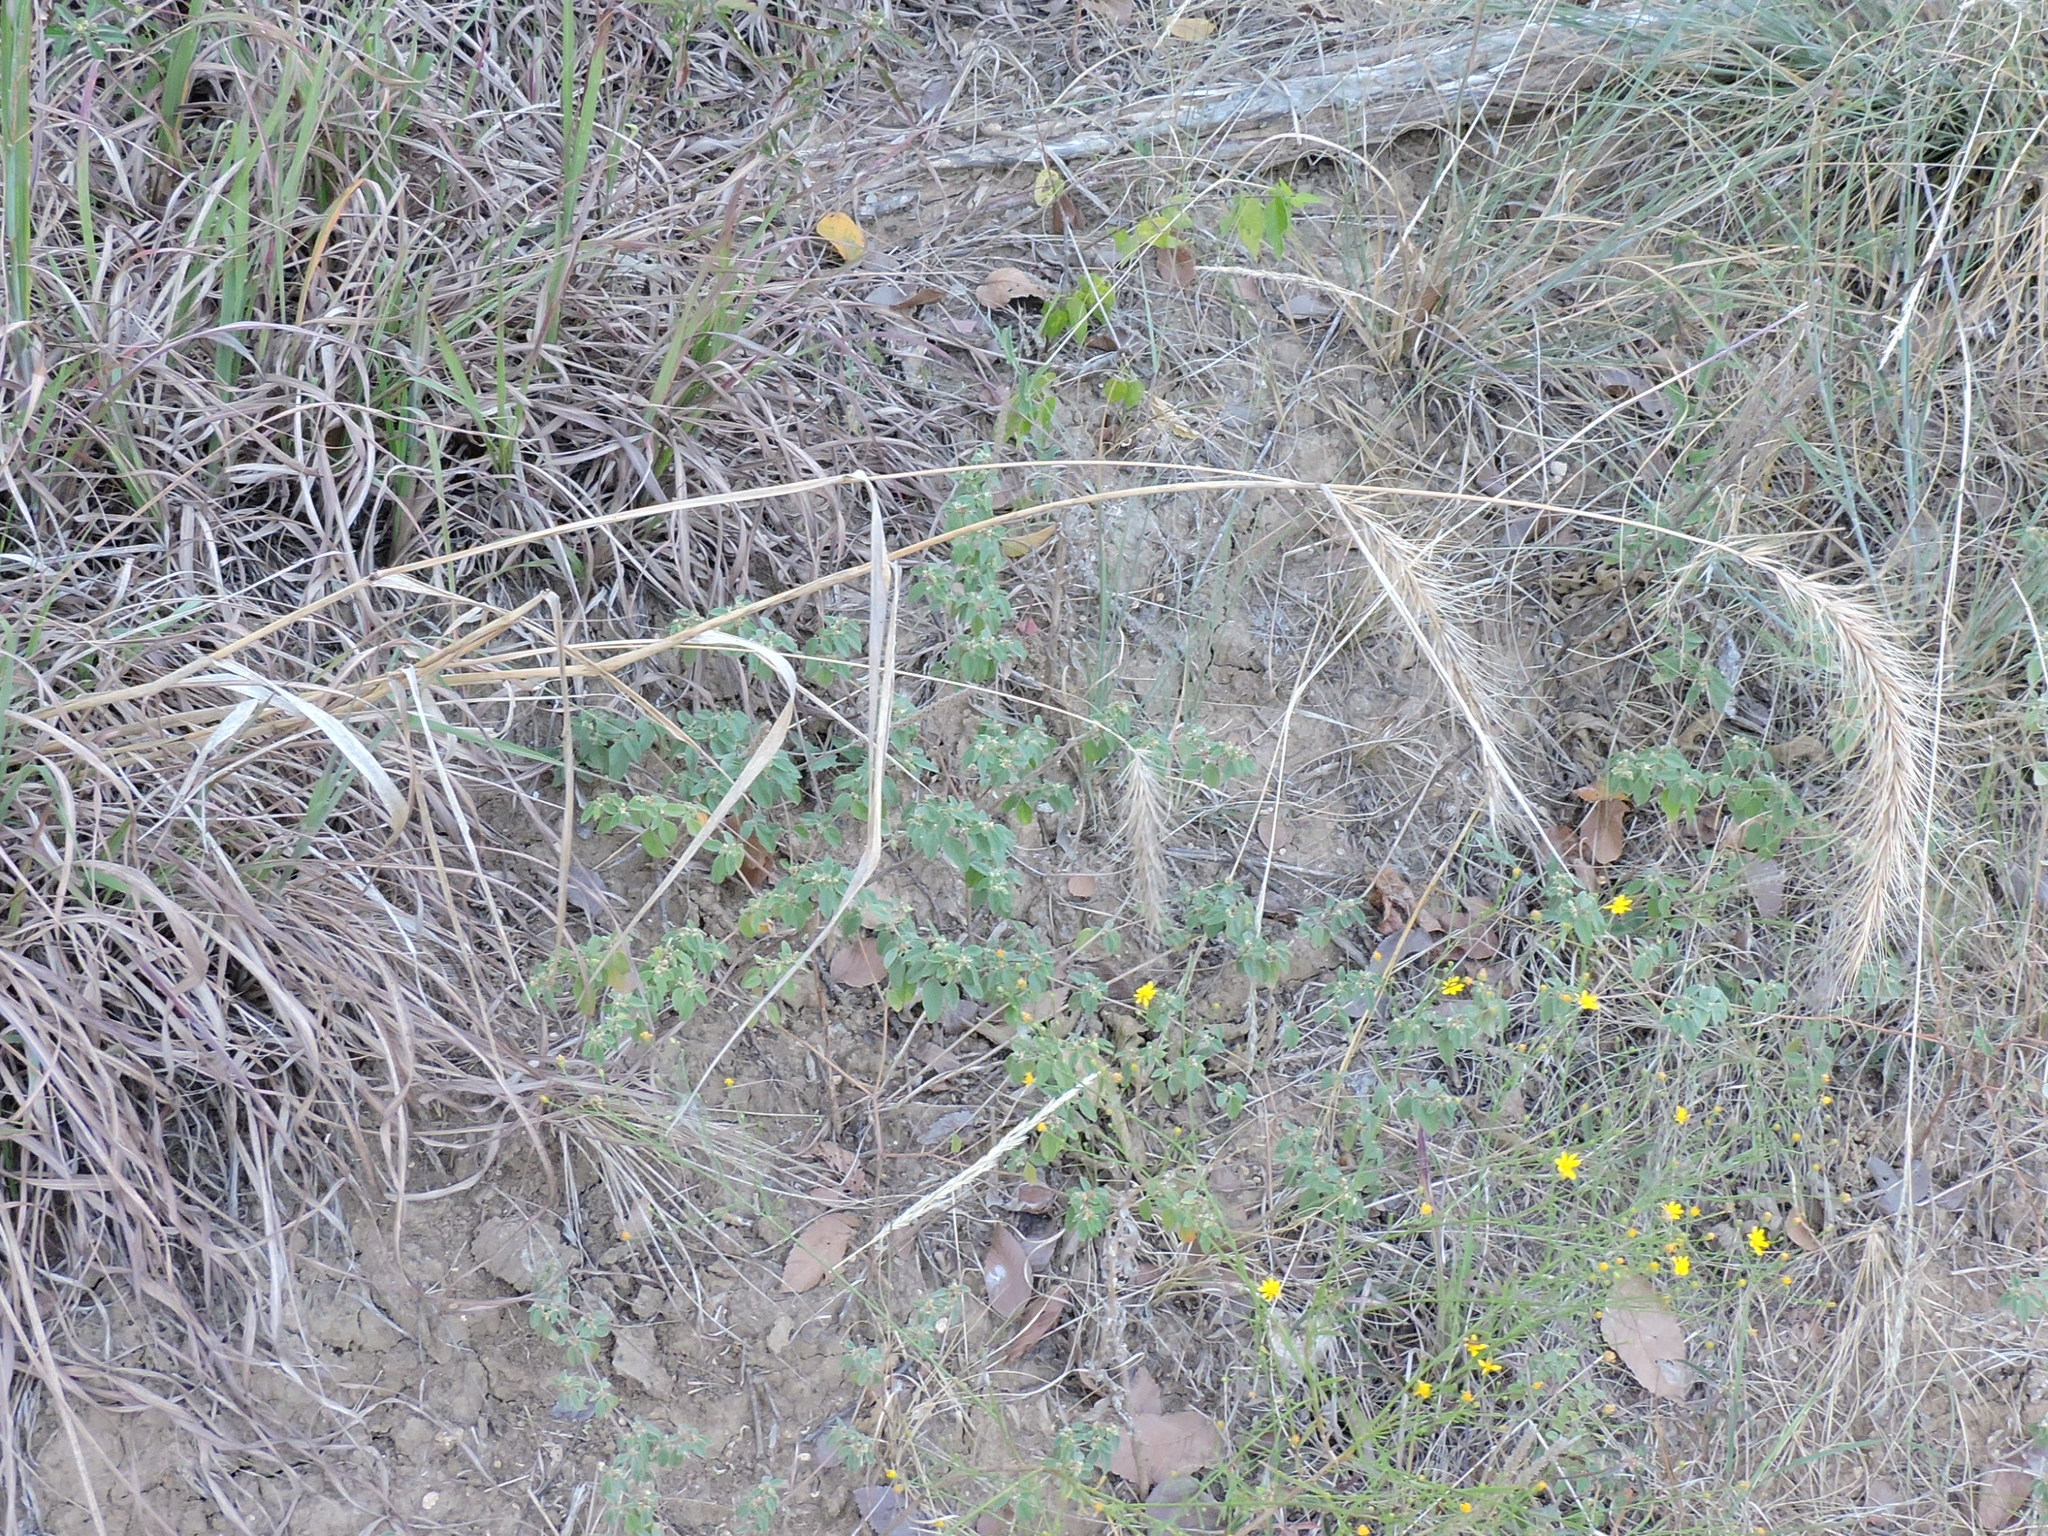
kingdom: Plantae
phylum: Tracheophyta
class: Liliopsida
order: Poales
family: Poaceae
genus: Elymus
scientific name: Elymus canadensis
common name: Canada wild rye
